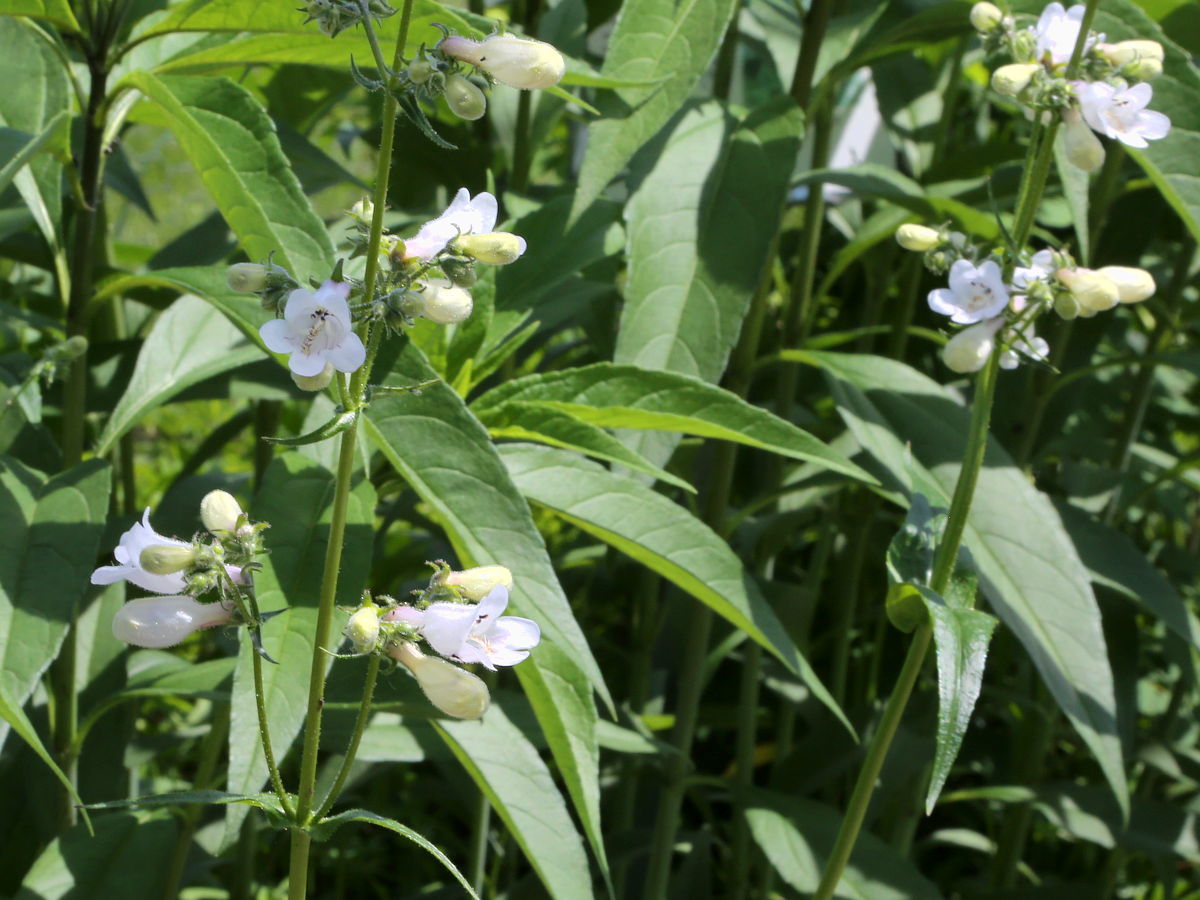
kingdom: Plantae
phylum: Tracheophyta
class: Magnoliopsida
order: Lamiales
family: Plantaginaceae
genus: Penstemon
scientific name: Penstemon digitalis
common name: Foxglove beardtongue
